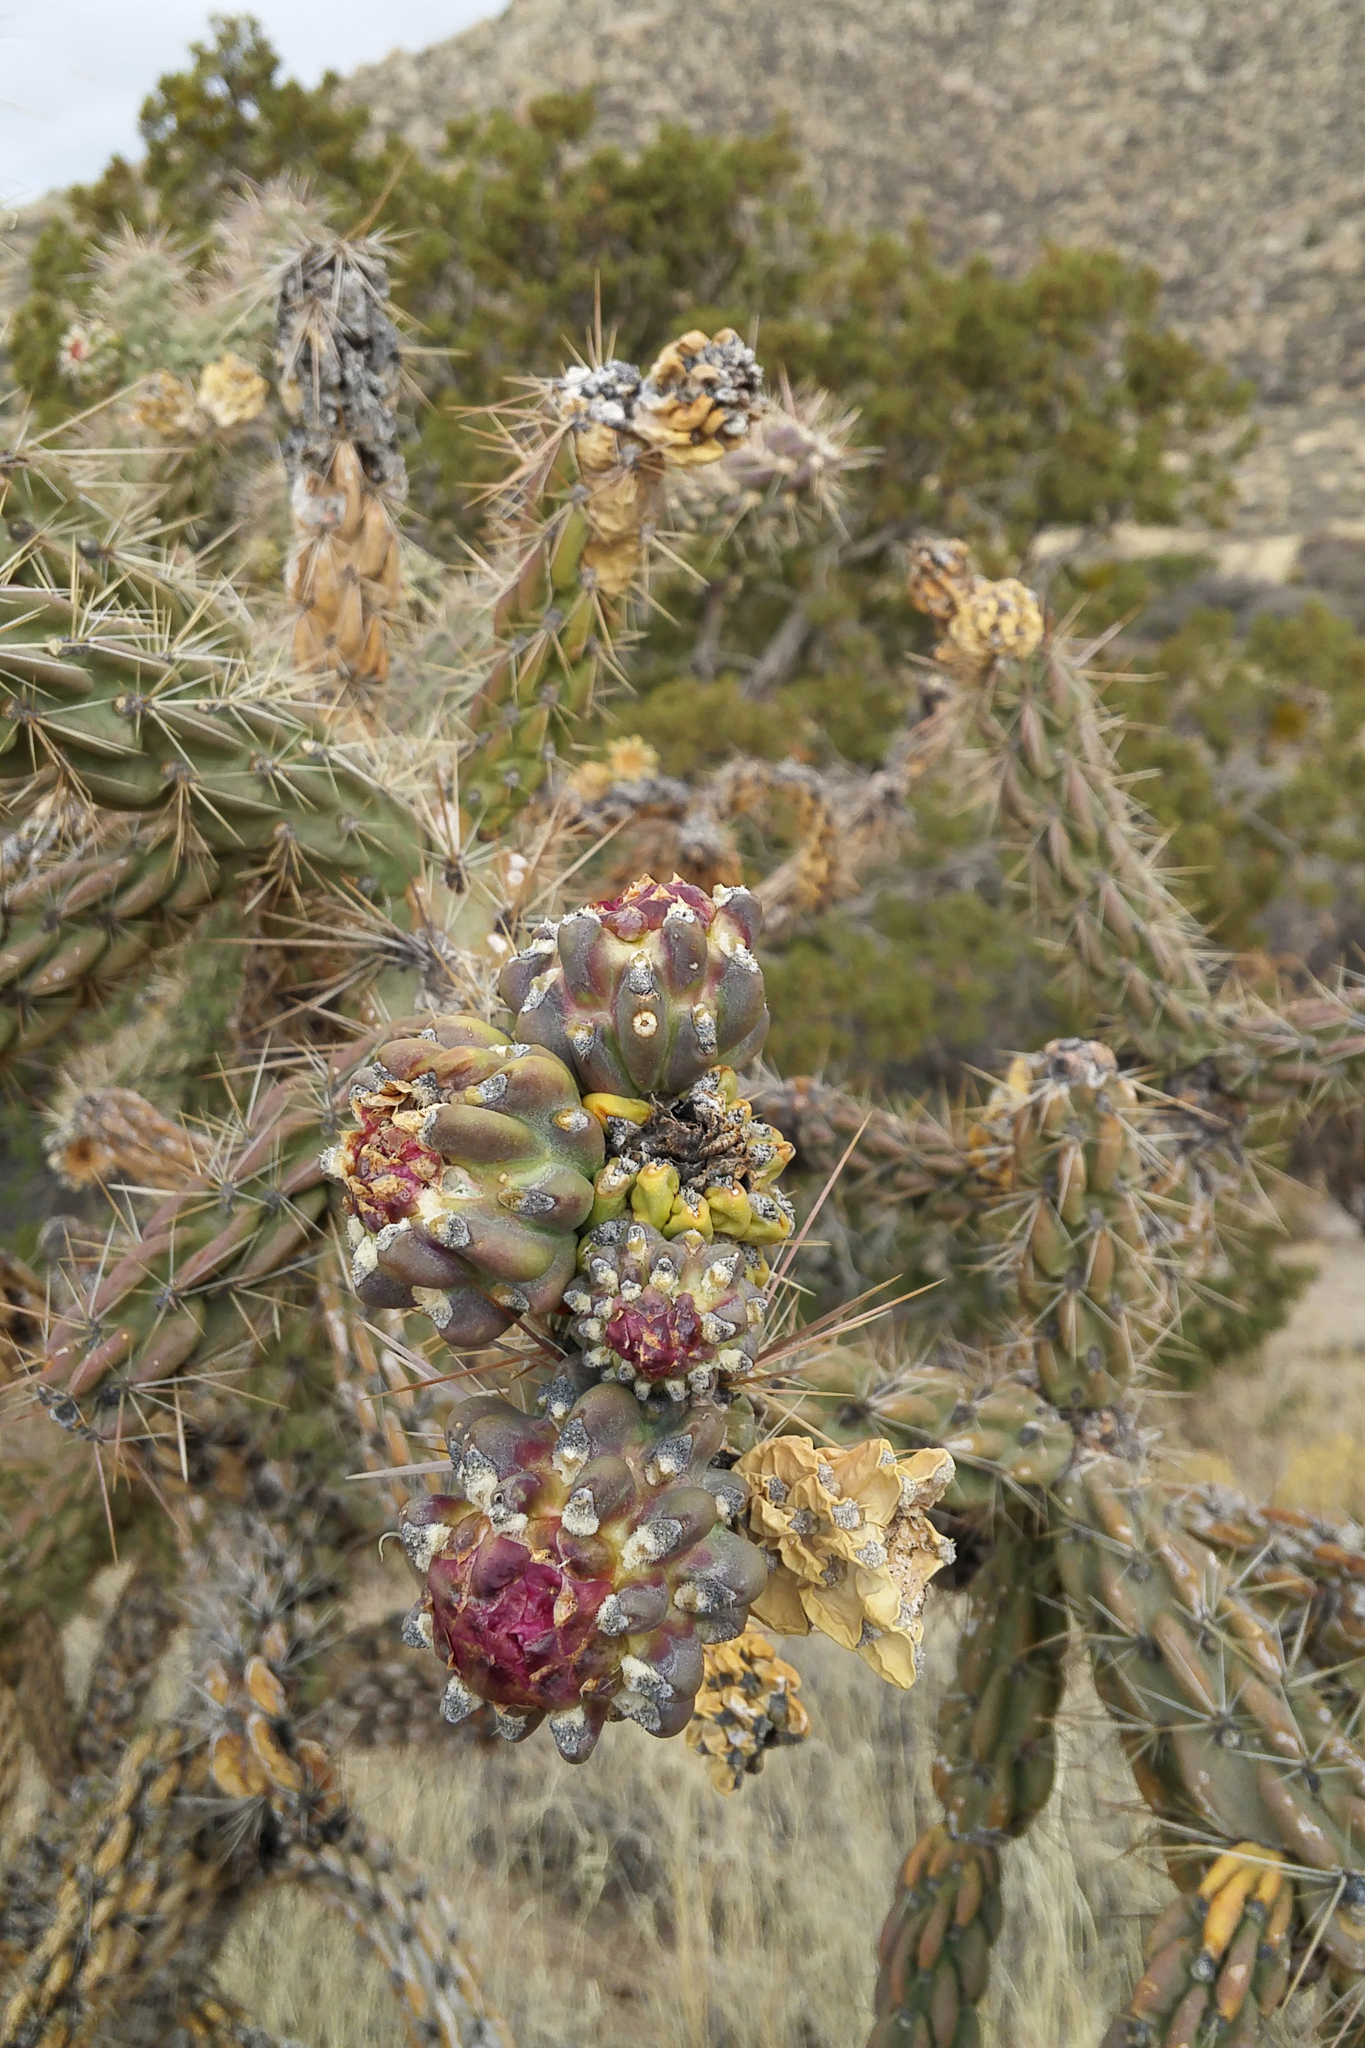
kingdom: Plantae
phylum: Tracheophyta
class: Magnoliopsida
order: Caryophyllales
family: Cactaceae
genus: Cylindropuntia
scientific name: Cylindropuntia imbricata
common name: Candelabrum cactus
